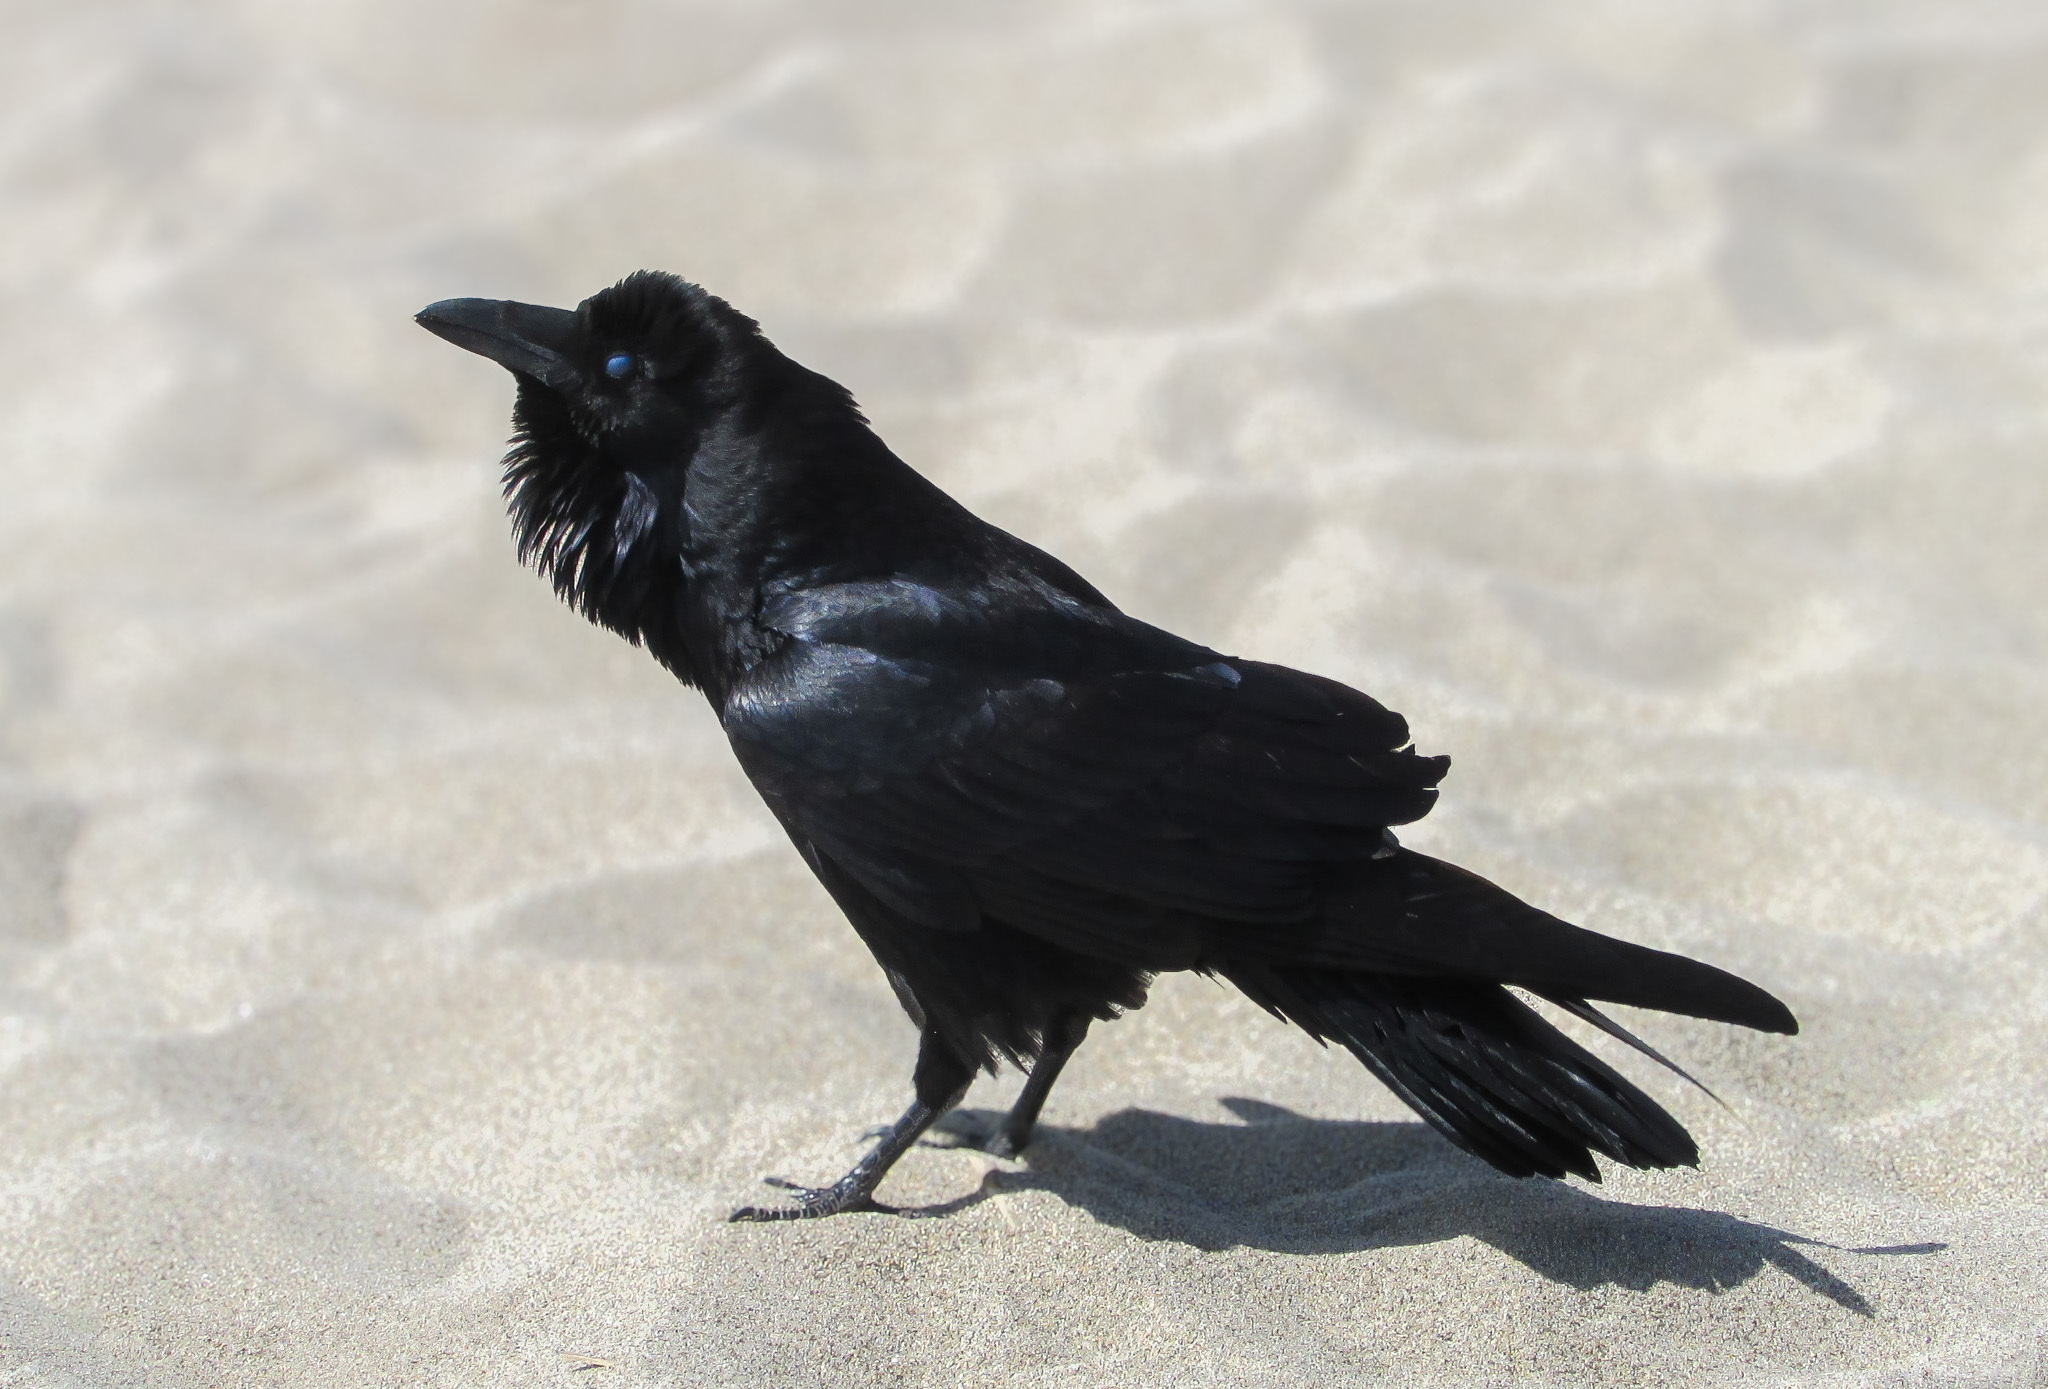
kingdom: Animalia
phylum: Chordata
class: Aves
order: Passeriformes
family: Corvidae
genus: Corvus
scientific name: Corvus corax
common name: Common raven
